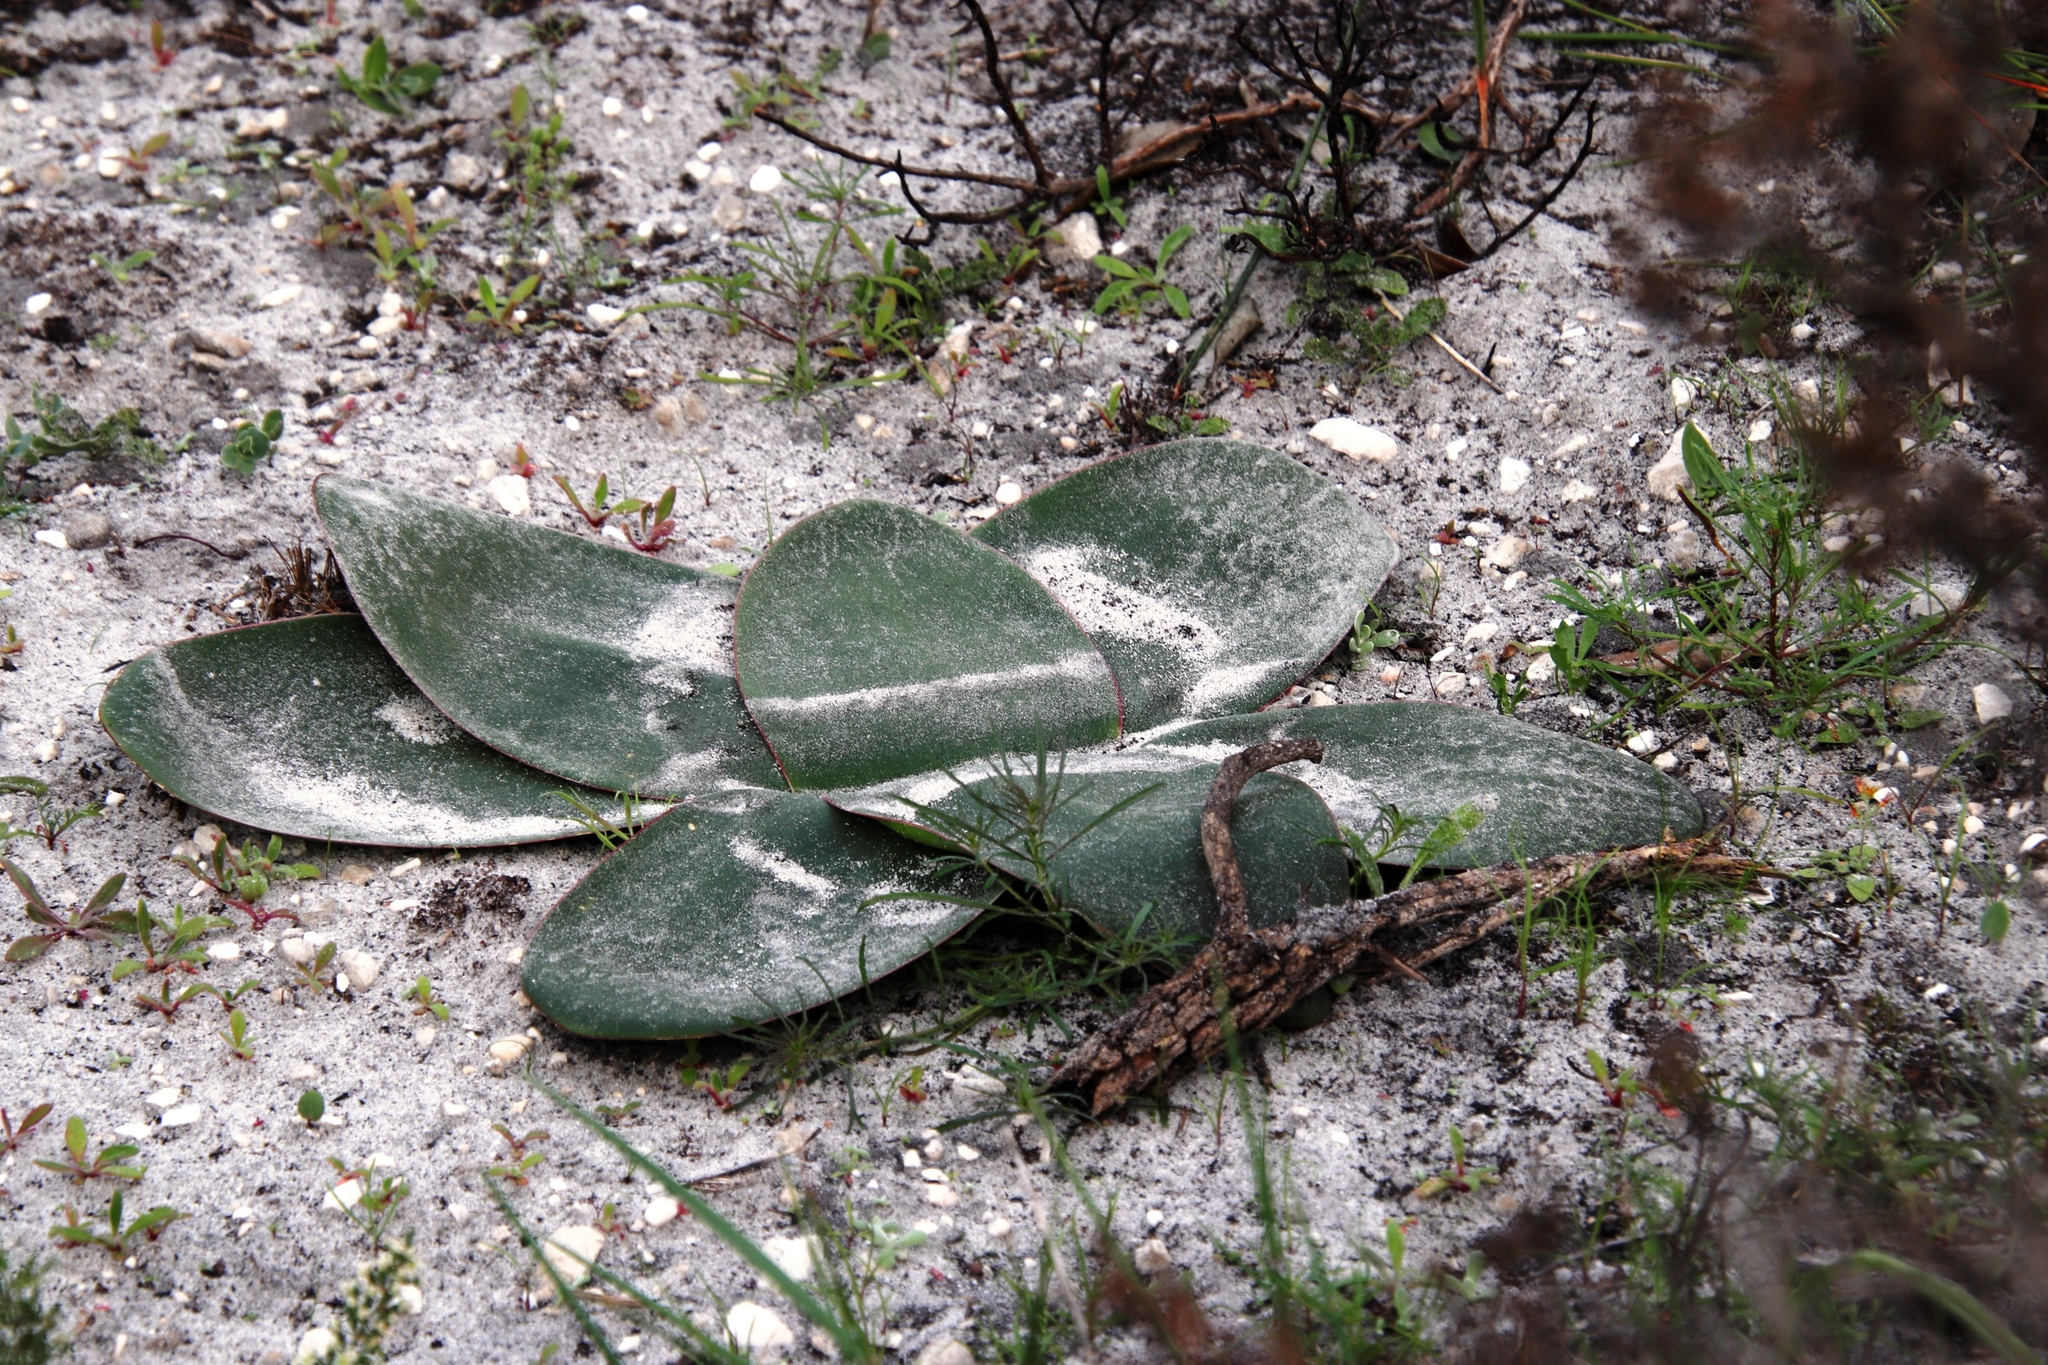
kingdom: Plantae
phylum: Tracheophyta
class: Liliopsida
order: Asparagales
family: Amaryllidaceae
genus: Brunsvigia
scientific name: Brunsvigia orientalis
